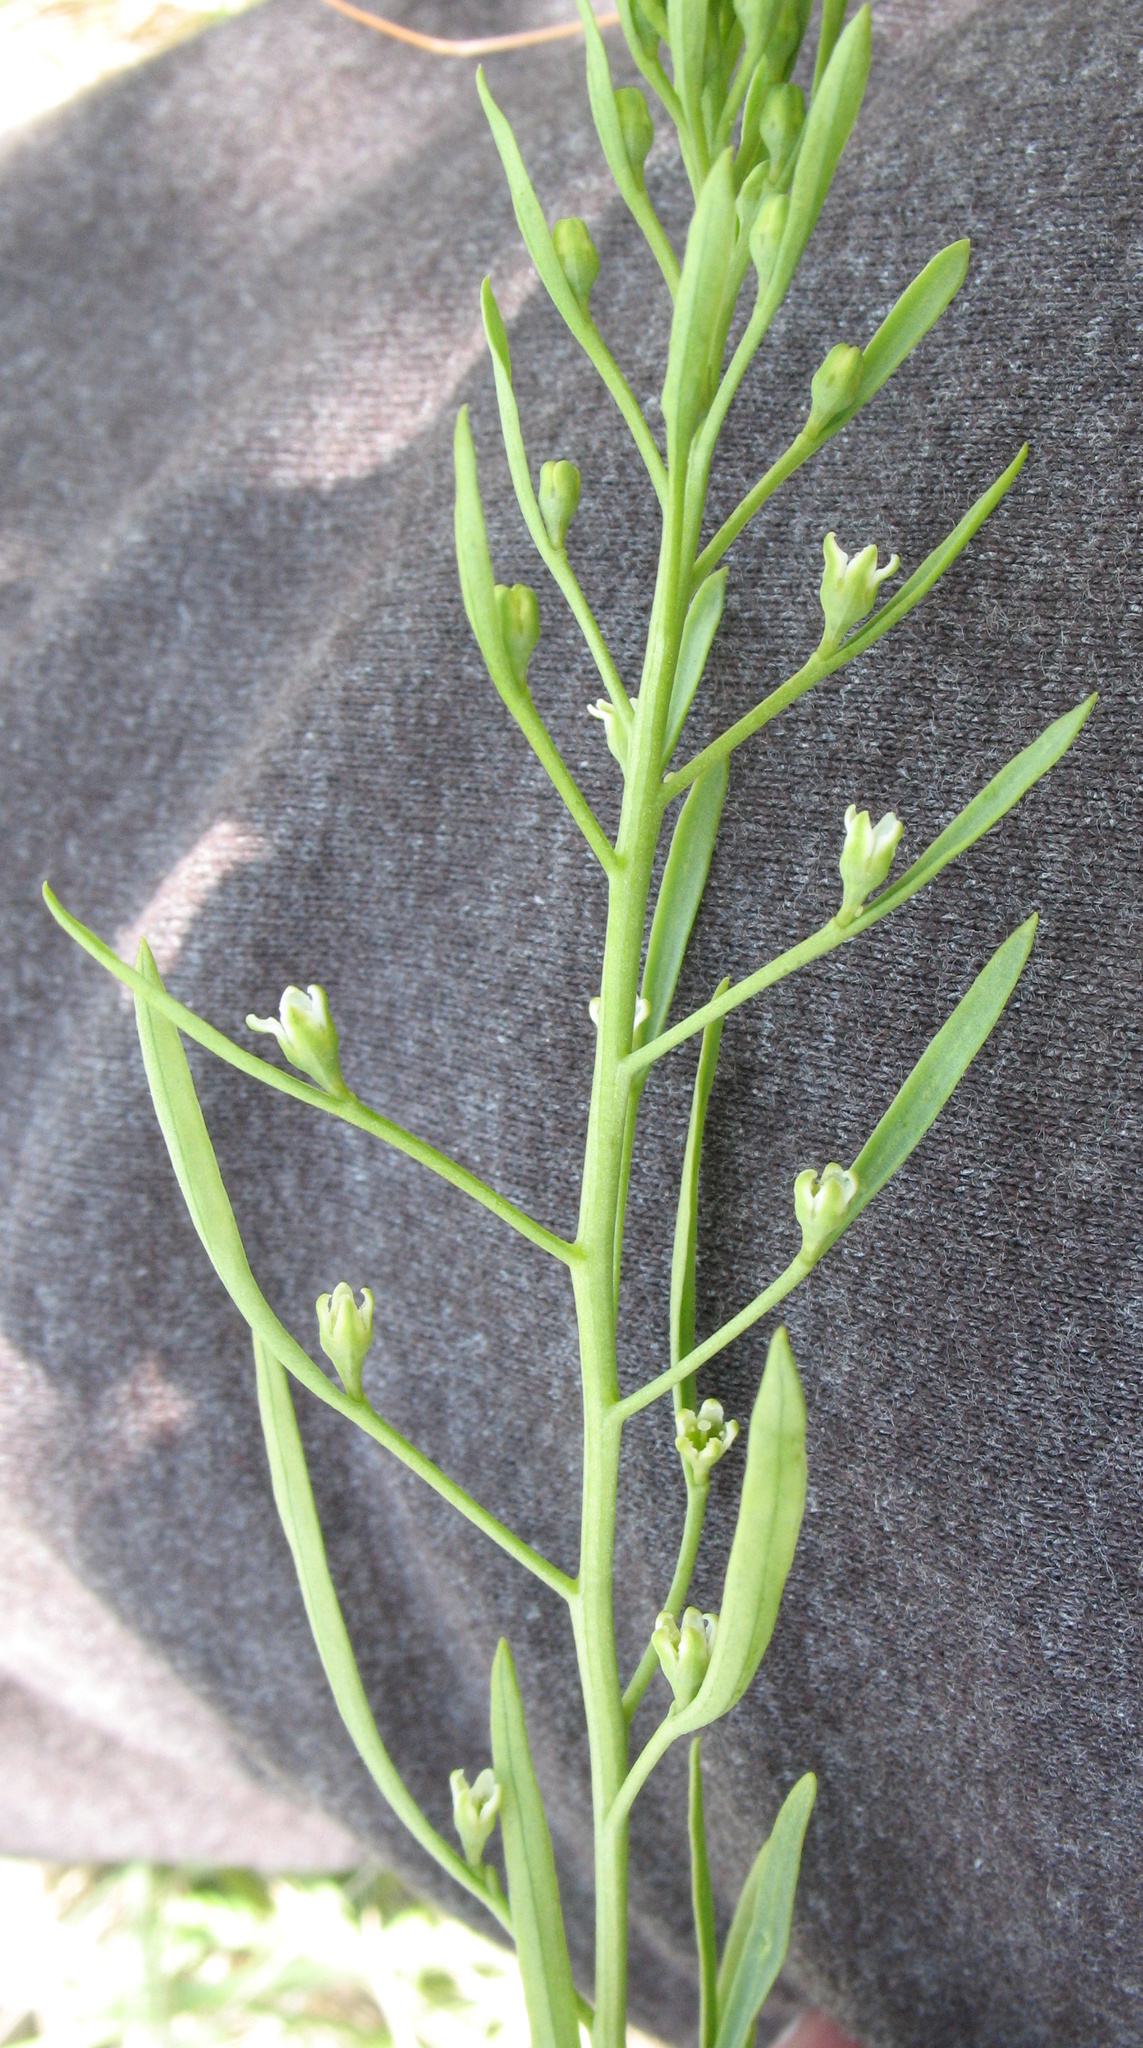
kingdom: Plantae
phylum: Tracheophyta
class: Magnoliopsida
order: Santalales
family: Thesiaceae
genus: Thesium
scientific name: Thesium ebracteatum
